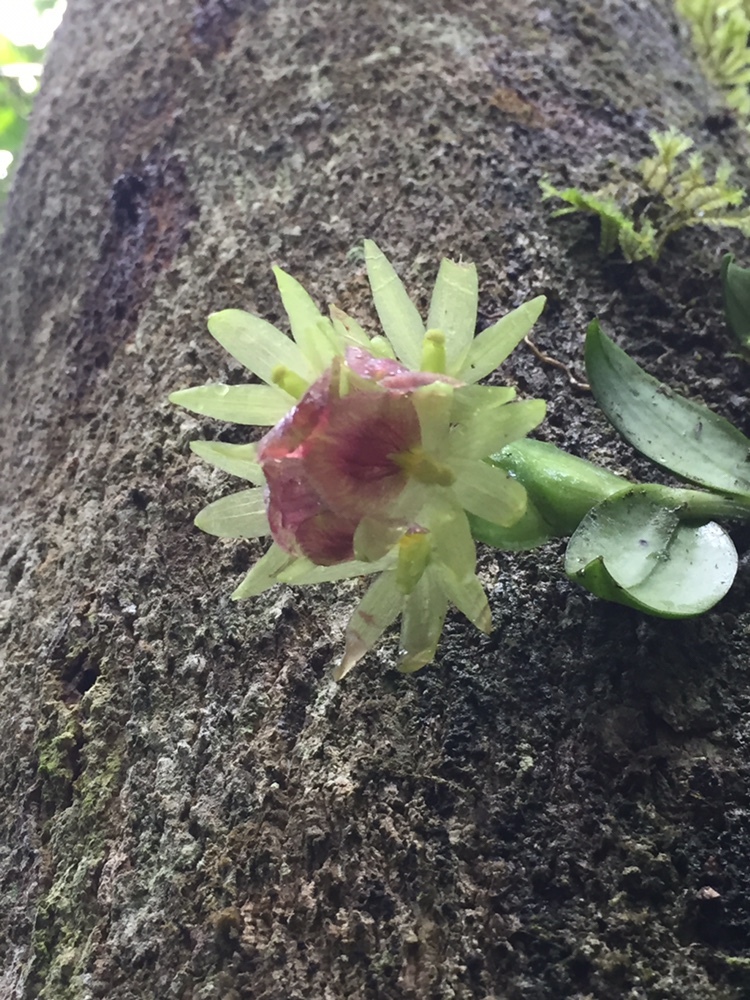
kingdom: Plantae
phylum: Tracheophyta
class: Liliopsida
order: Asparagales
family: Orchidaceae
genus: Epidendrum
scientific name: Epidendrum megalospathum
